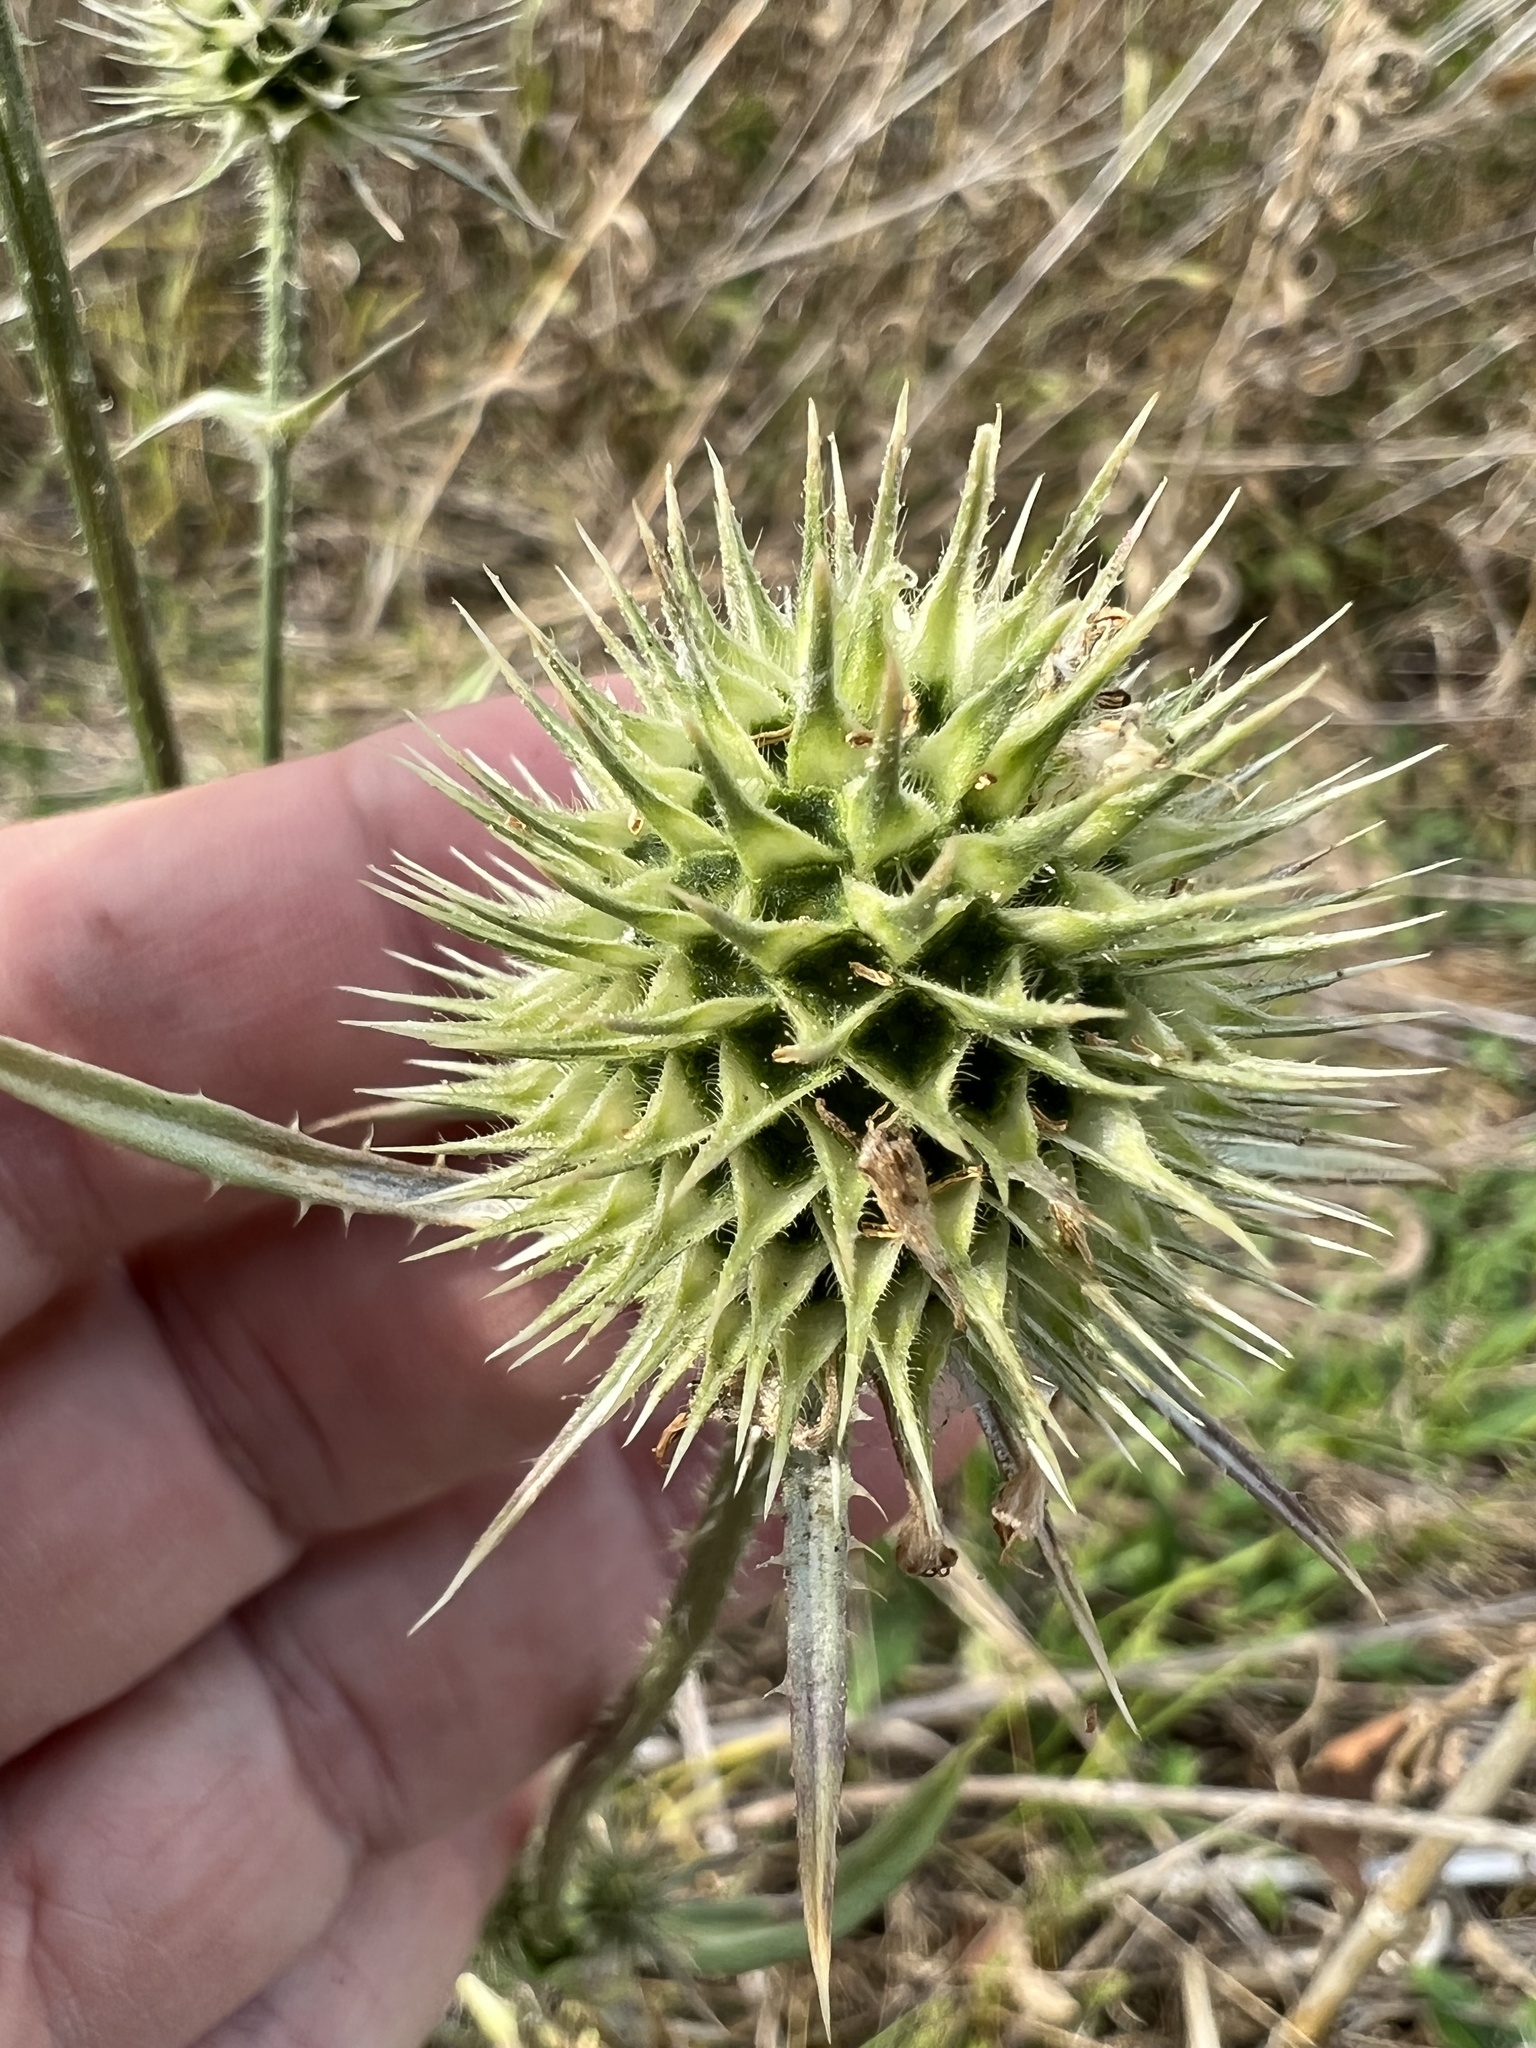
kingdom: Plantae
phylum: Tracheophyta
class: Magnoliopsida
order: Dipsacales
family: Caprifoliaceae
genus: Dipsacus
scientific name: Dipsacus laciniatus
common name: Cut-leaved teasel
